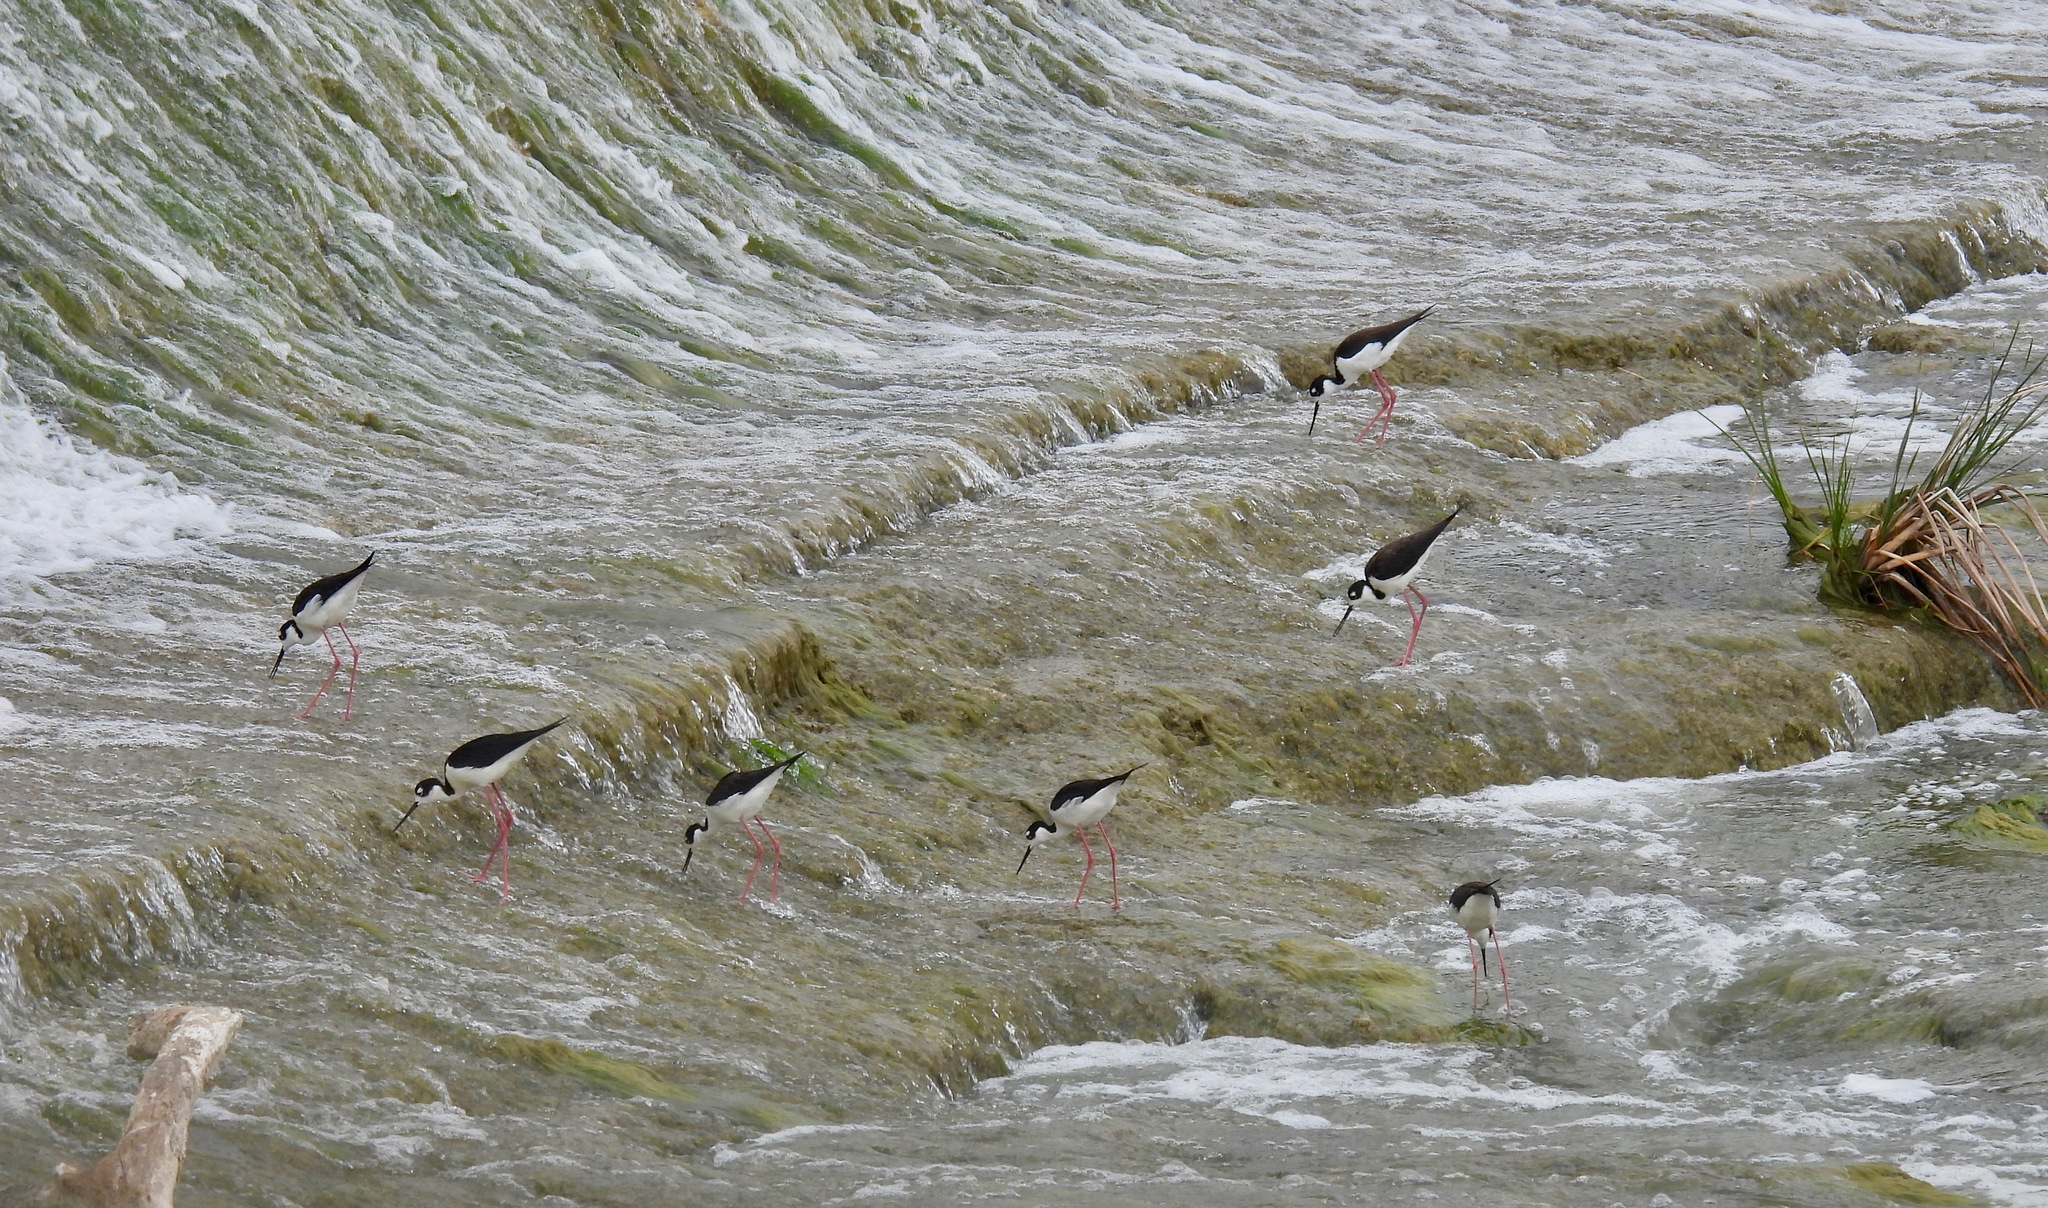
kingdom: Animalia
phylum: Chordata
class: Aves
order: Charadriiformes
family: Recurvirostridae
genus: Himantopus
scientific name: Himantopus mexicanus
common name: Black-necked stilt
